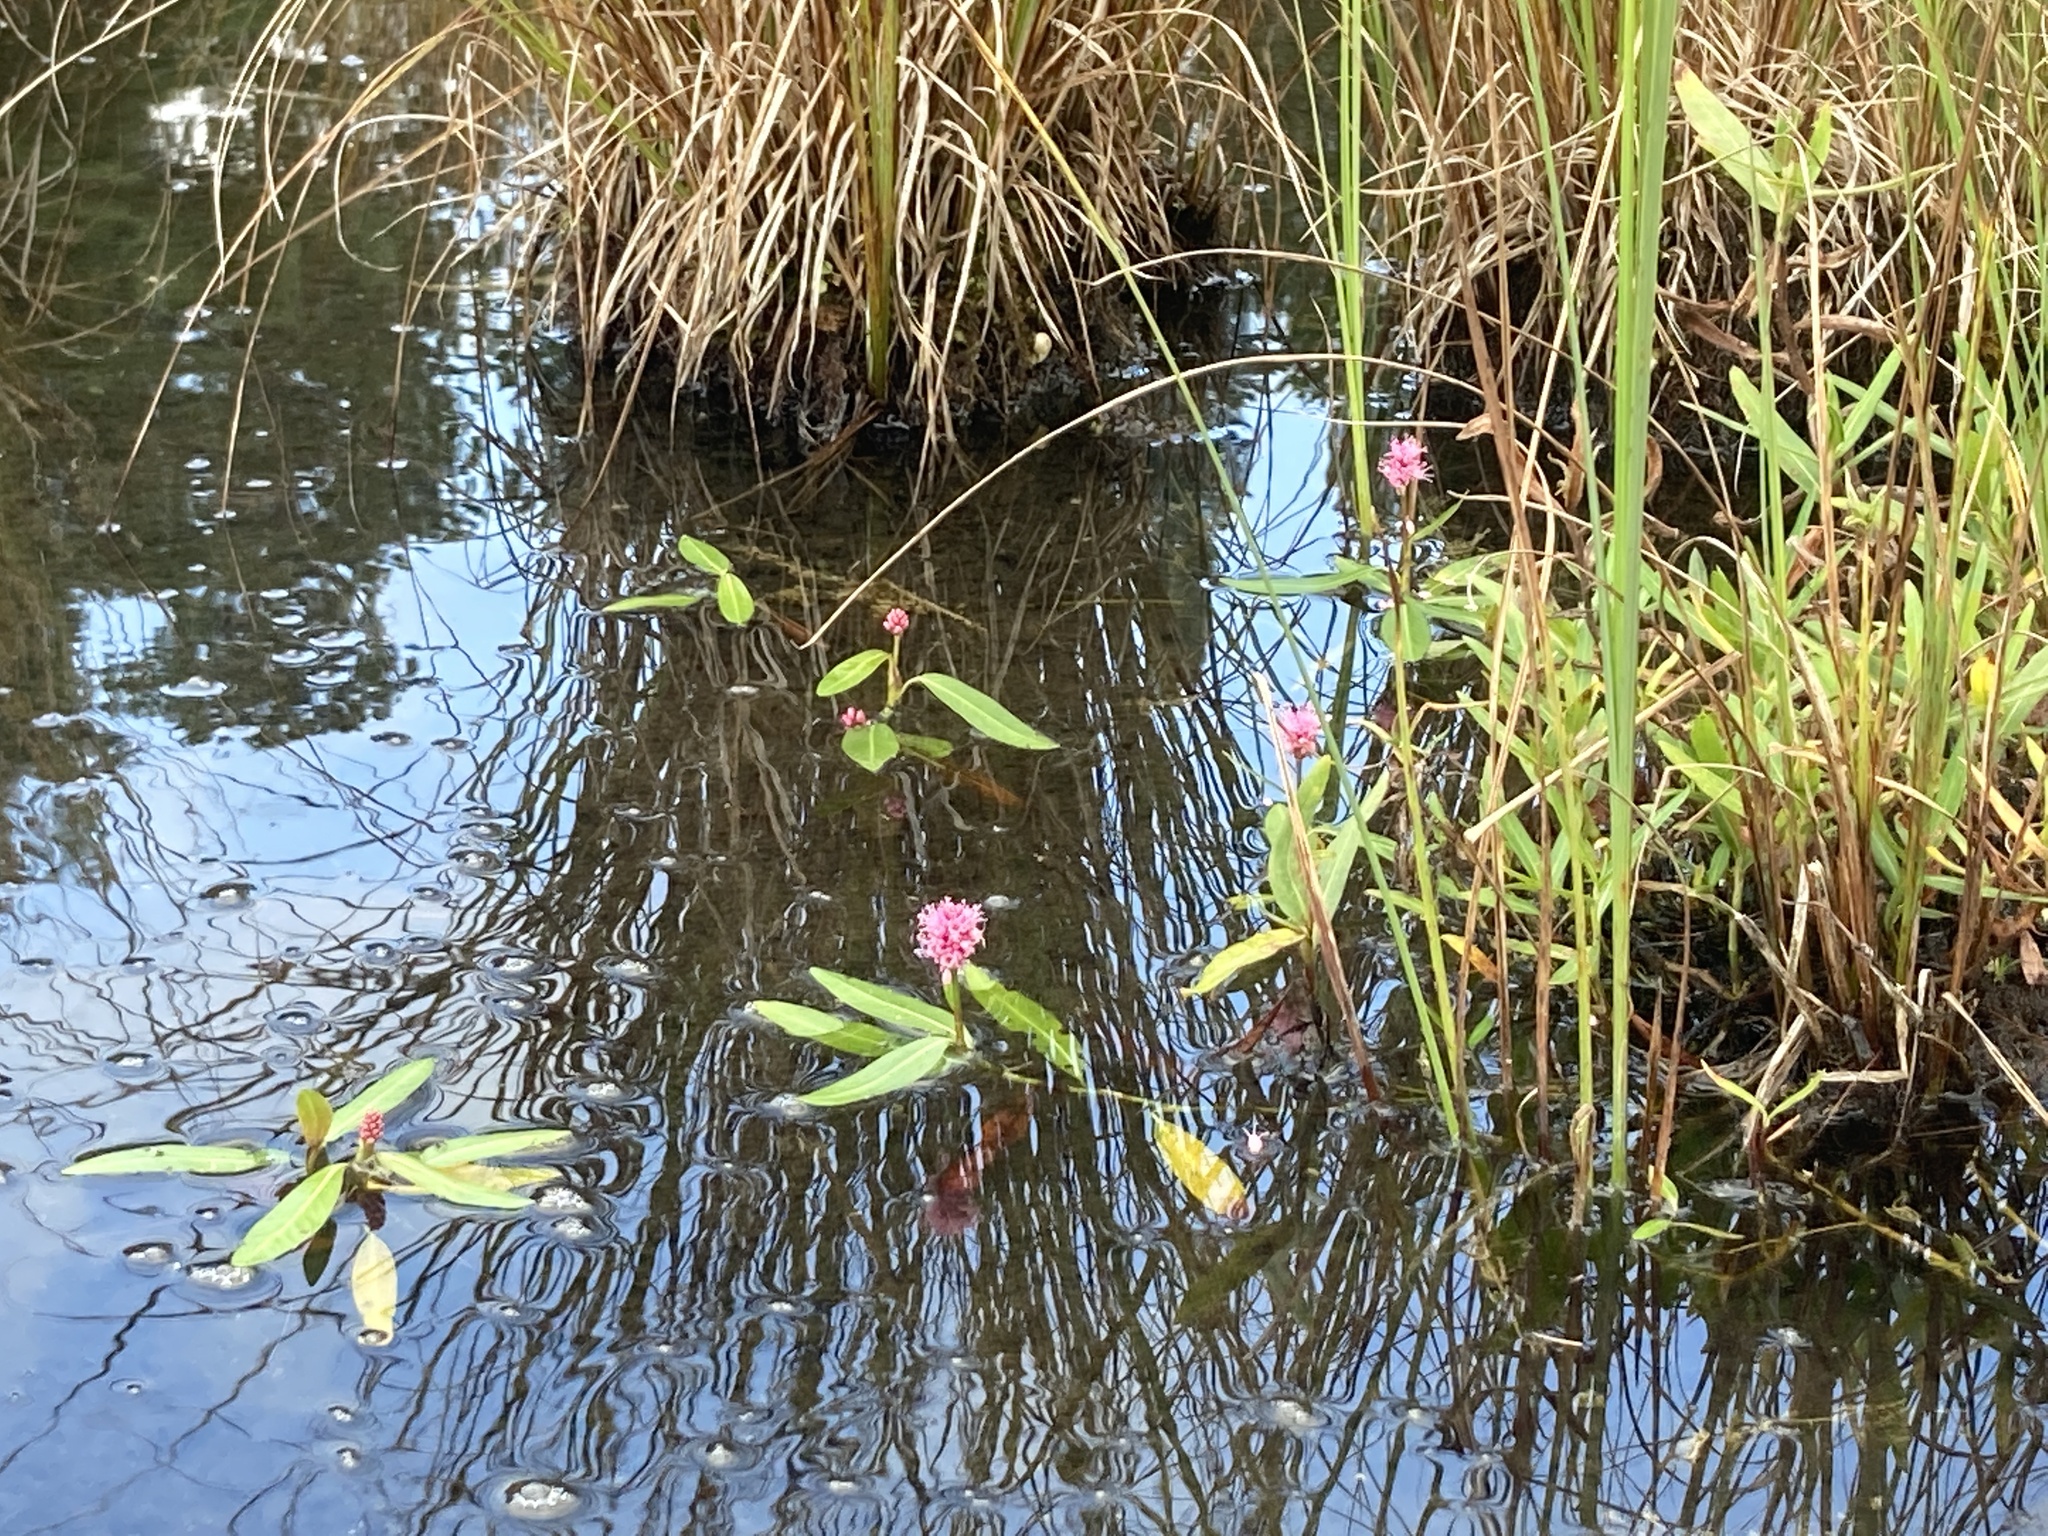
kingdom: Plantae
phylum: Tracheophyta
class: Magnoliopsida
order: Caryophyllales
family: Polygonaceae
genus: Persicaria
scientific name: Persicaria amphibia
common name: Amphibious bistort
